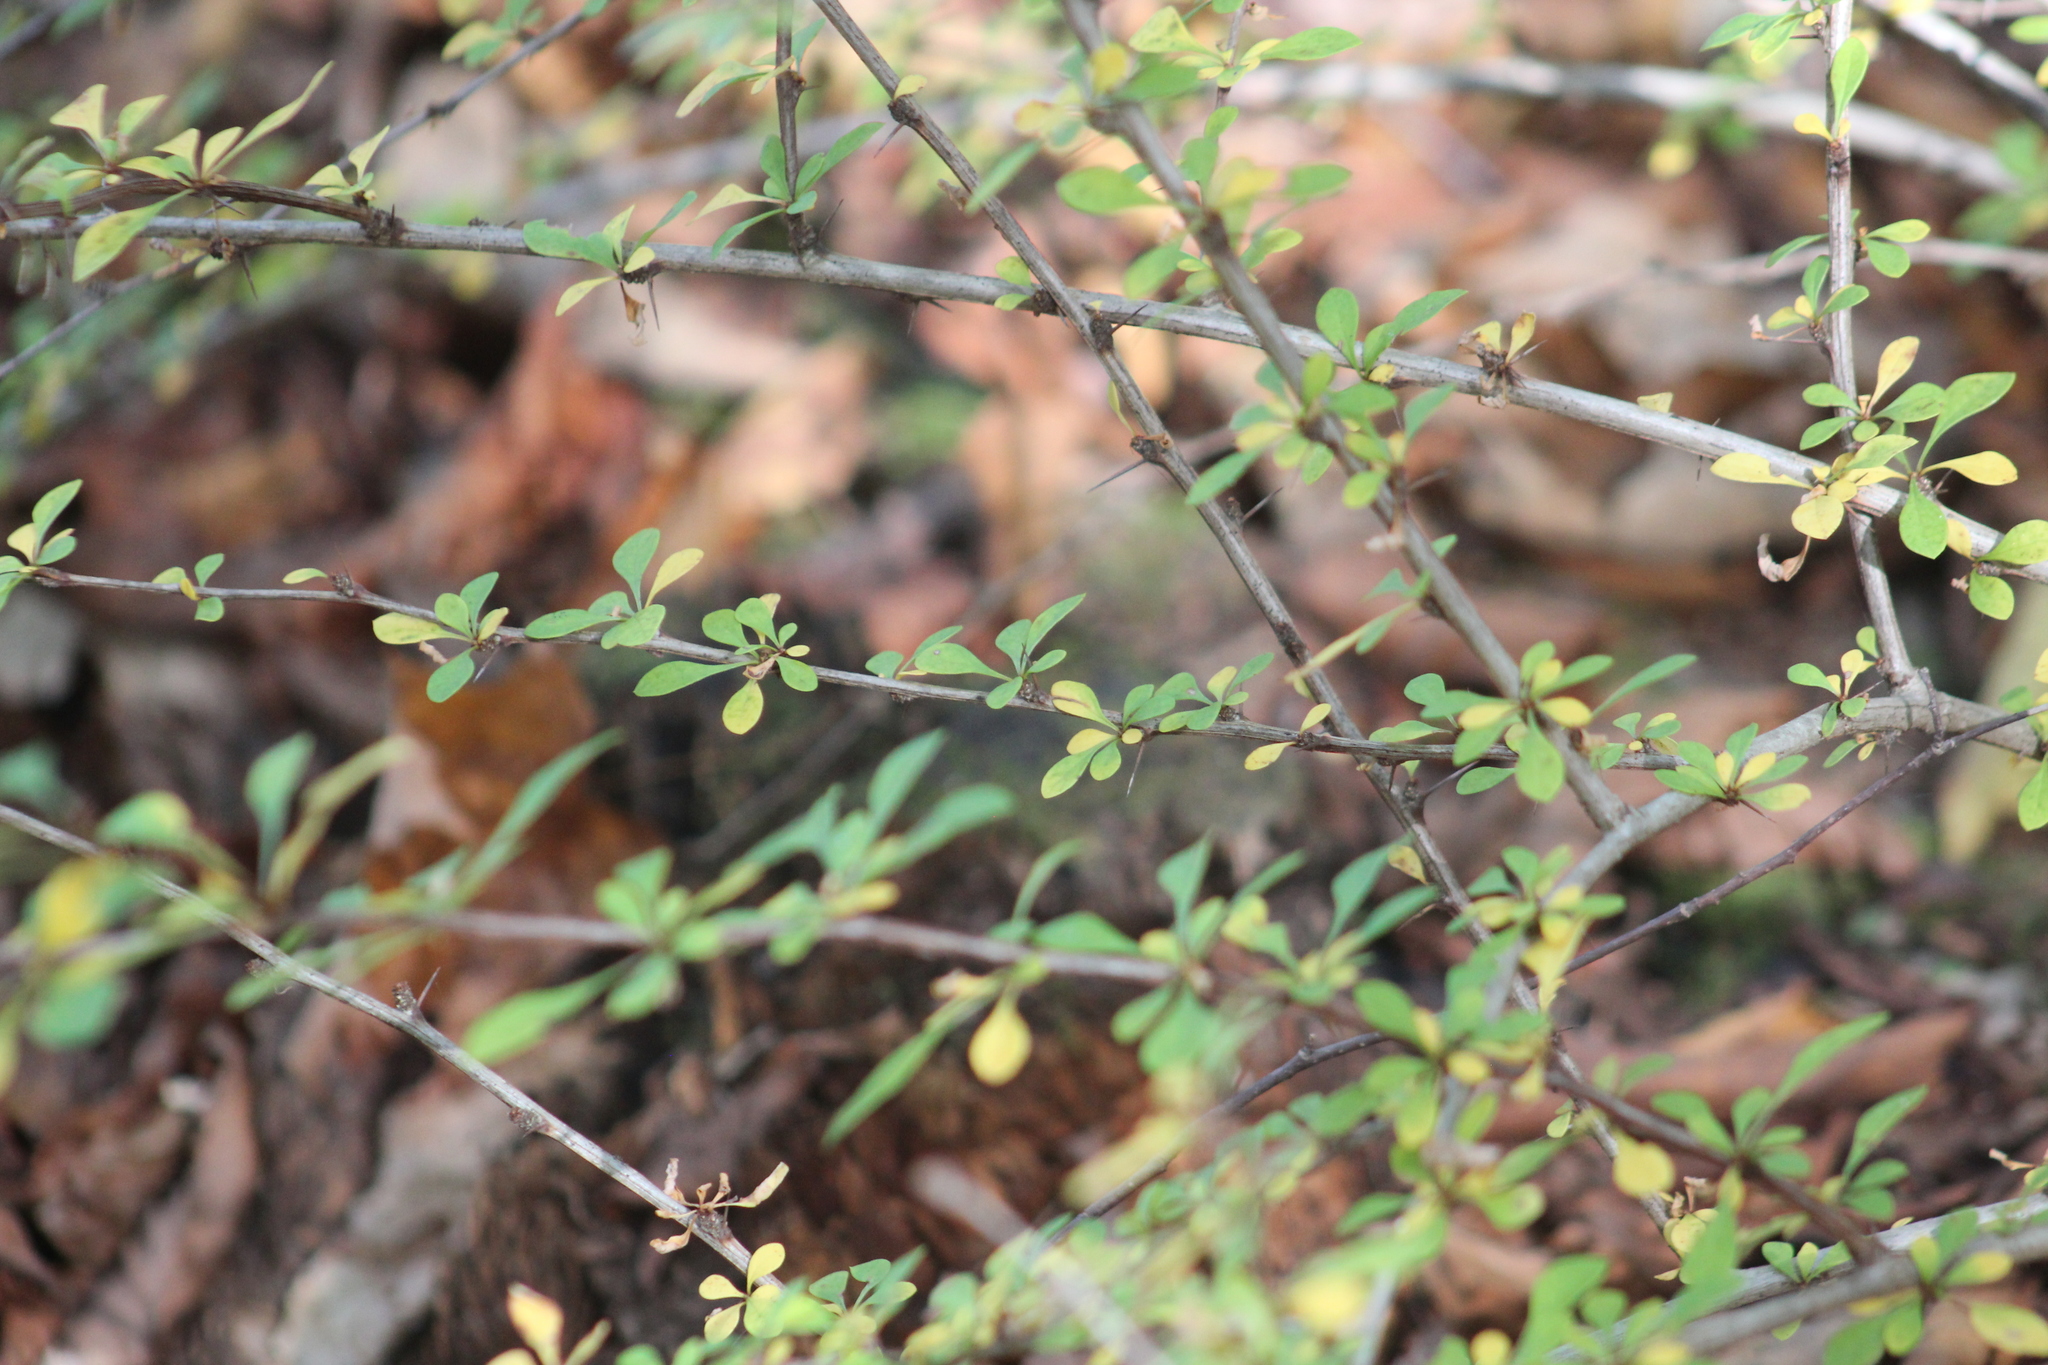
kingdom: Plantae
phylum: Tracheophyta
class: Magnoliopsida
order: Ranunculales
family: Berberidaceae
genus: Berberis
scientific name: Berberis thunbergii
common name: Japanese barberry
